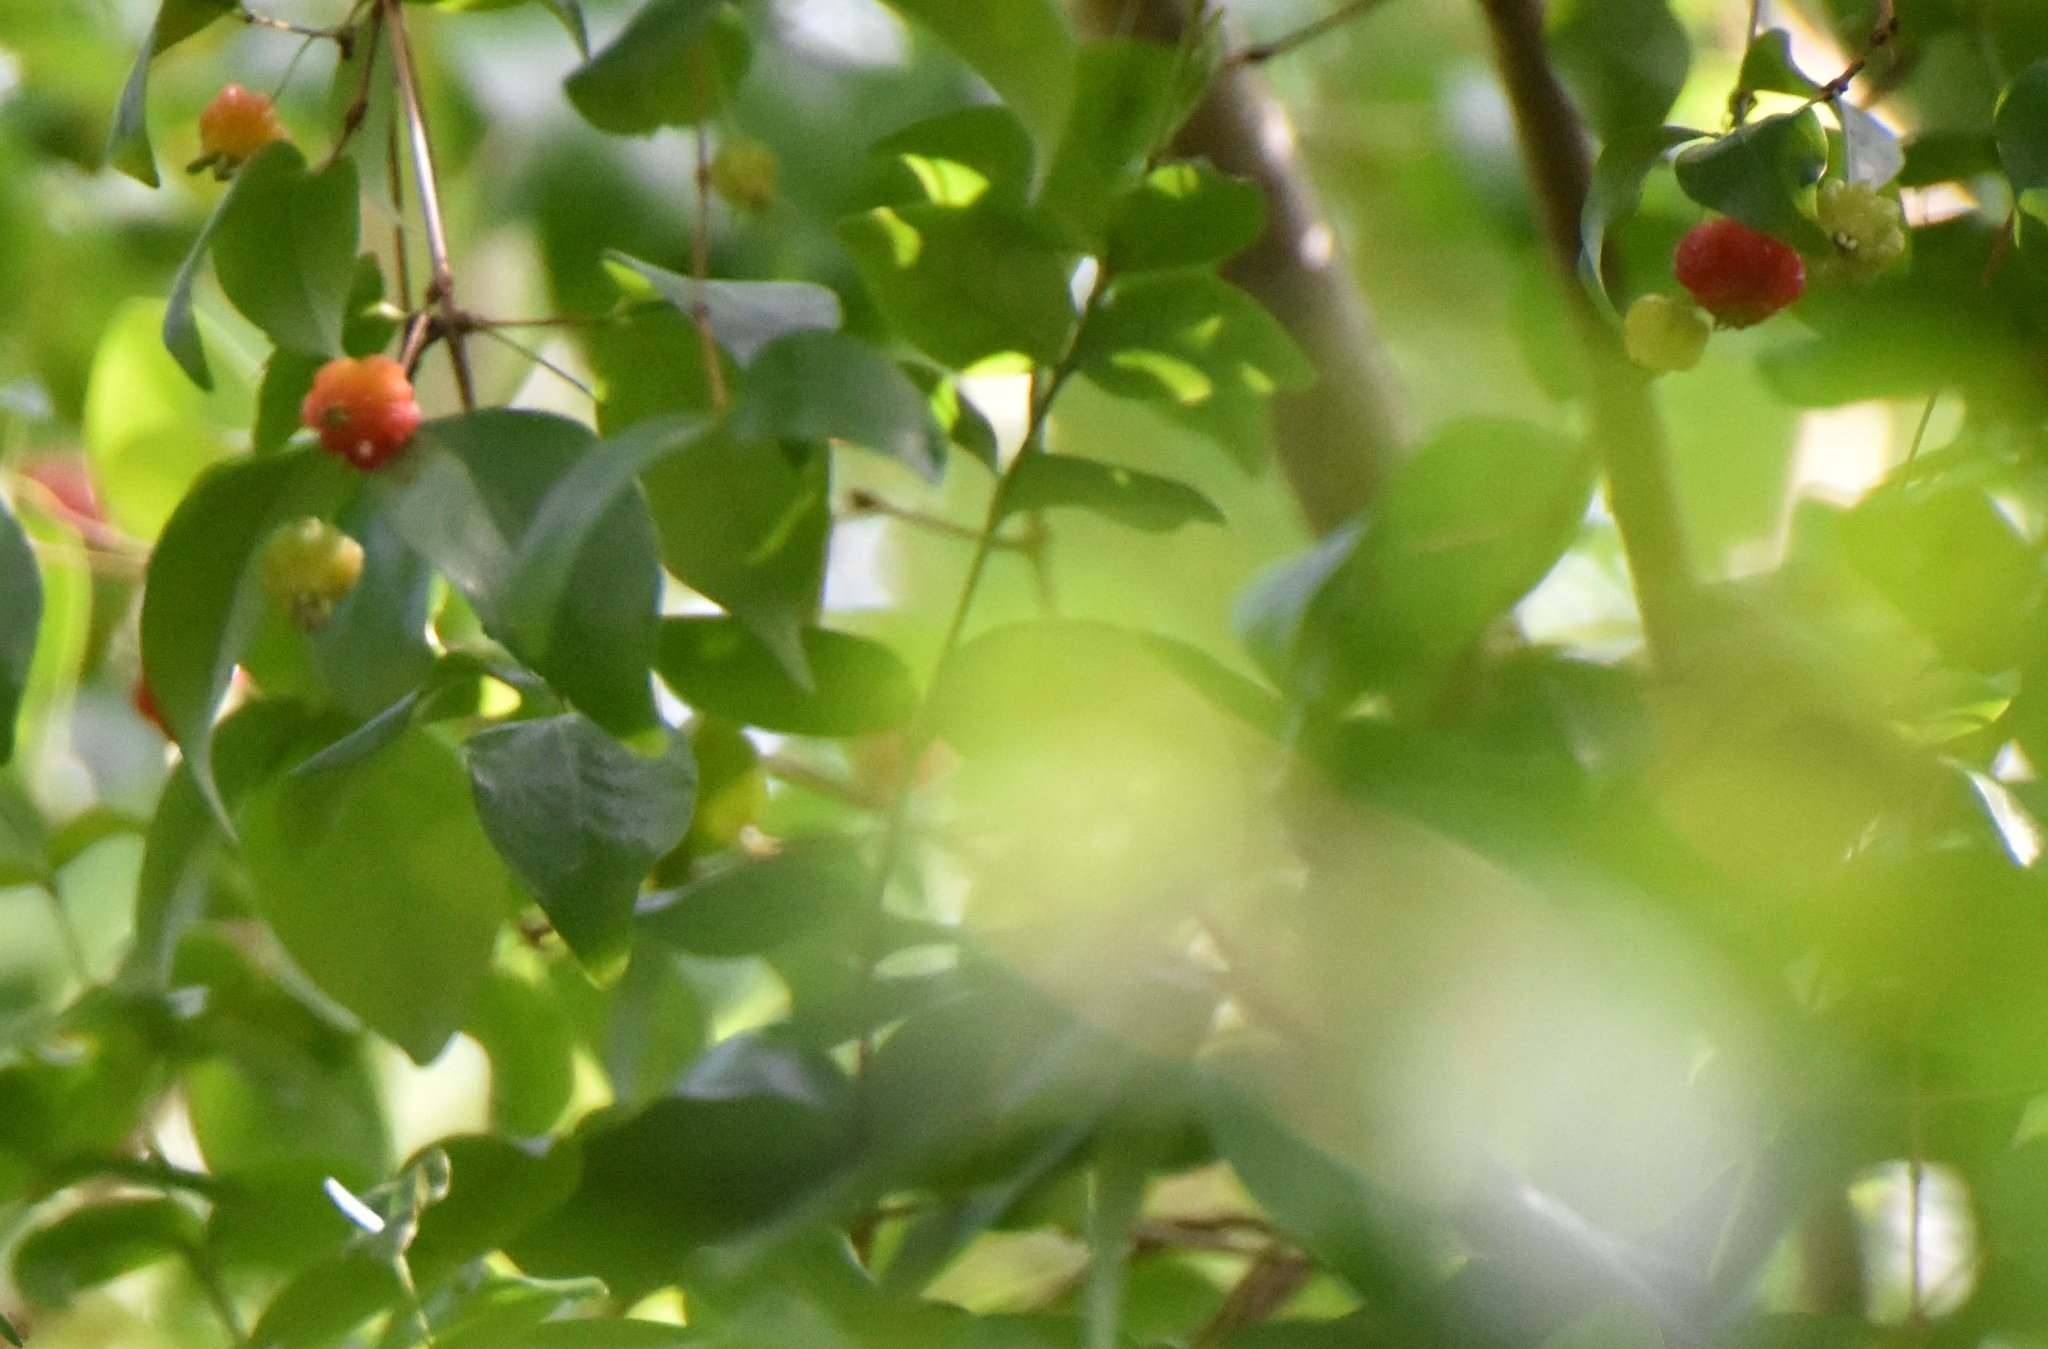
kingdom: Plantae
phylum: Tracheophyta
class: Magnoliopsida
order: Myrtales
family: Myrtaceae
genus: Eugenia
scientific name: Eugenia uniflora
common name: Surinam cherry
